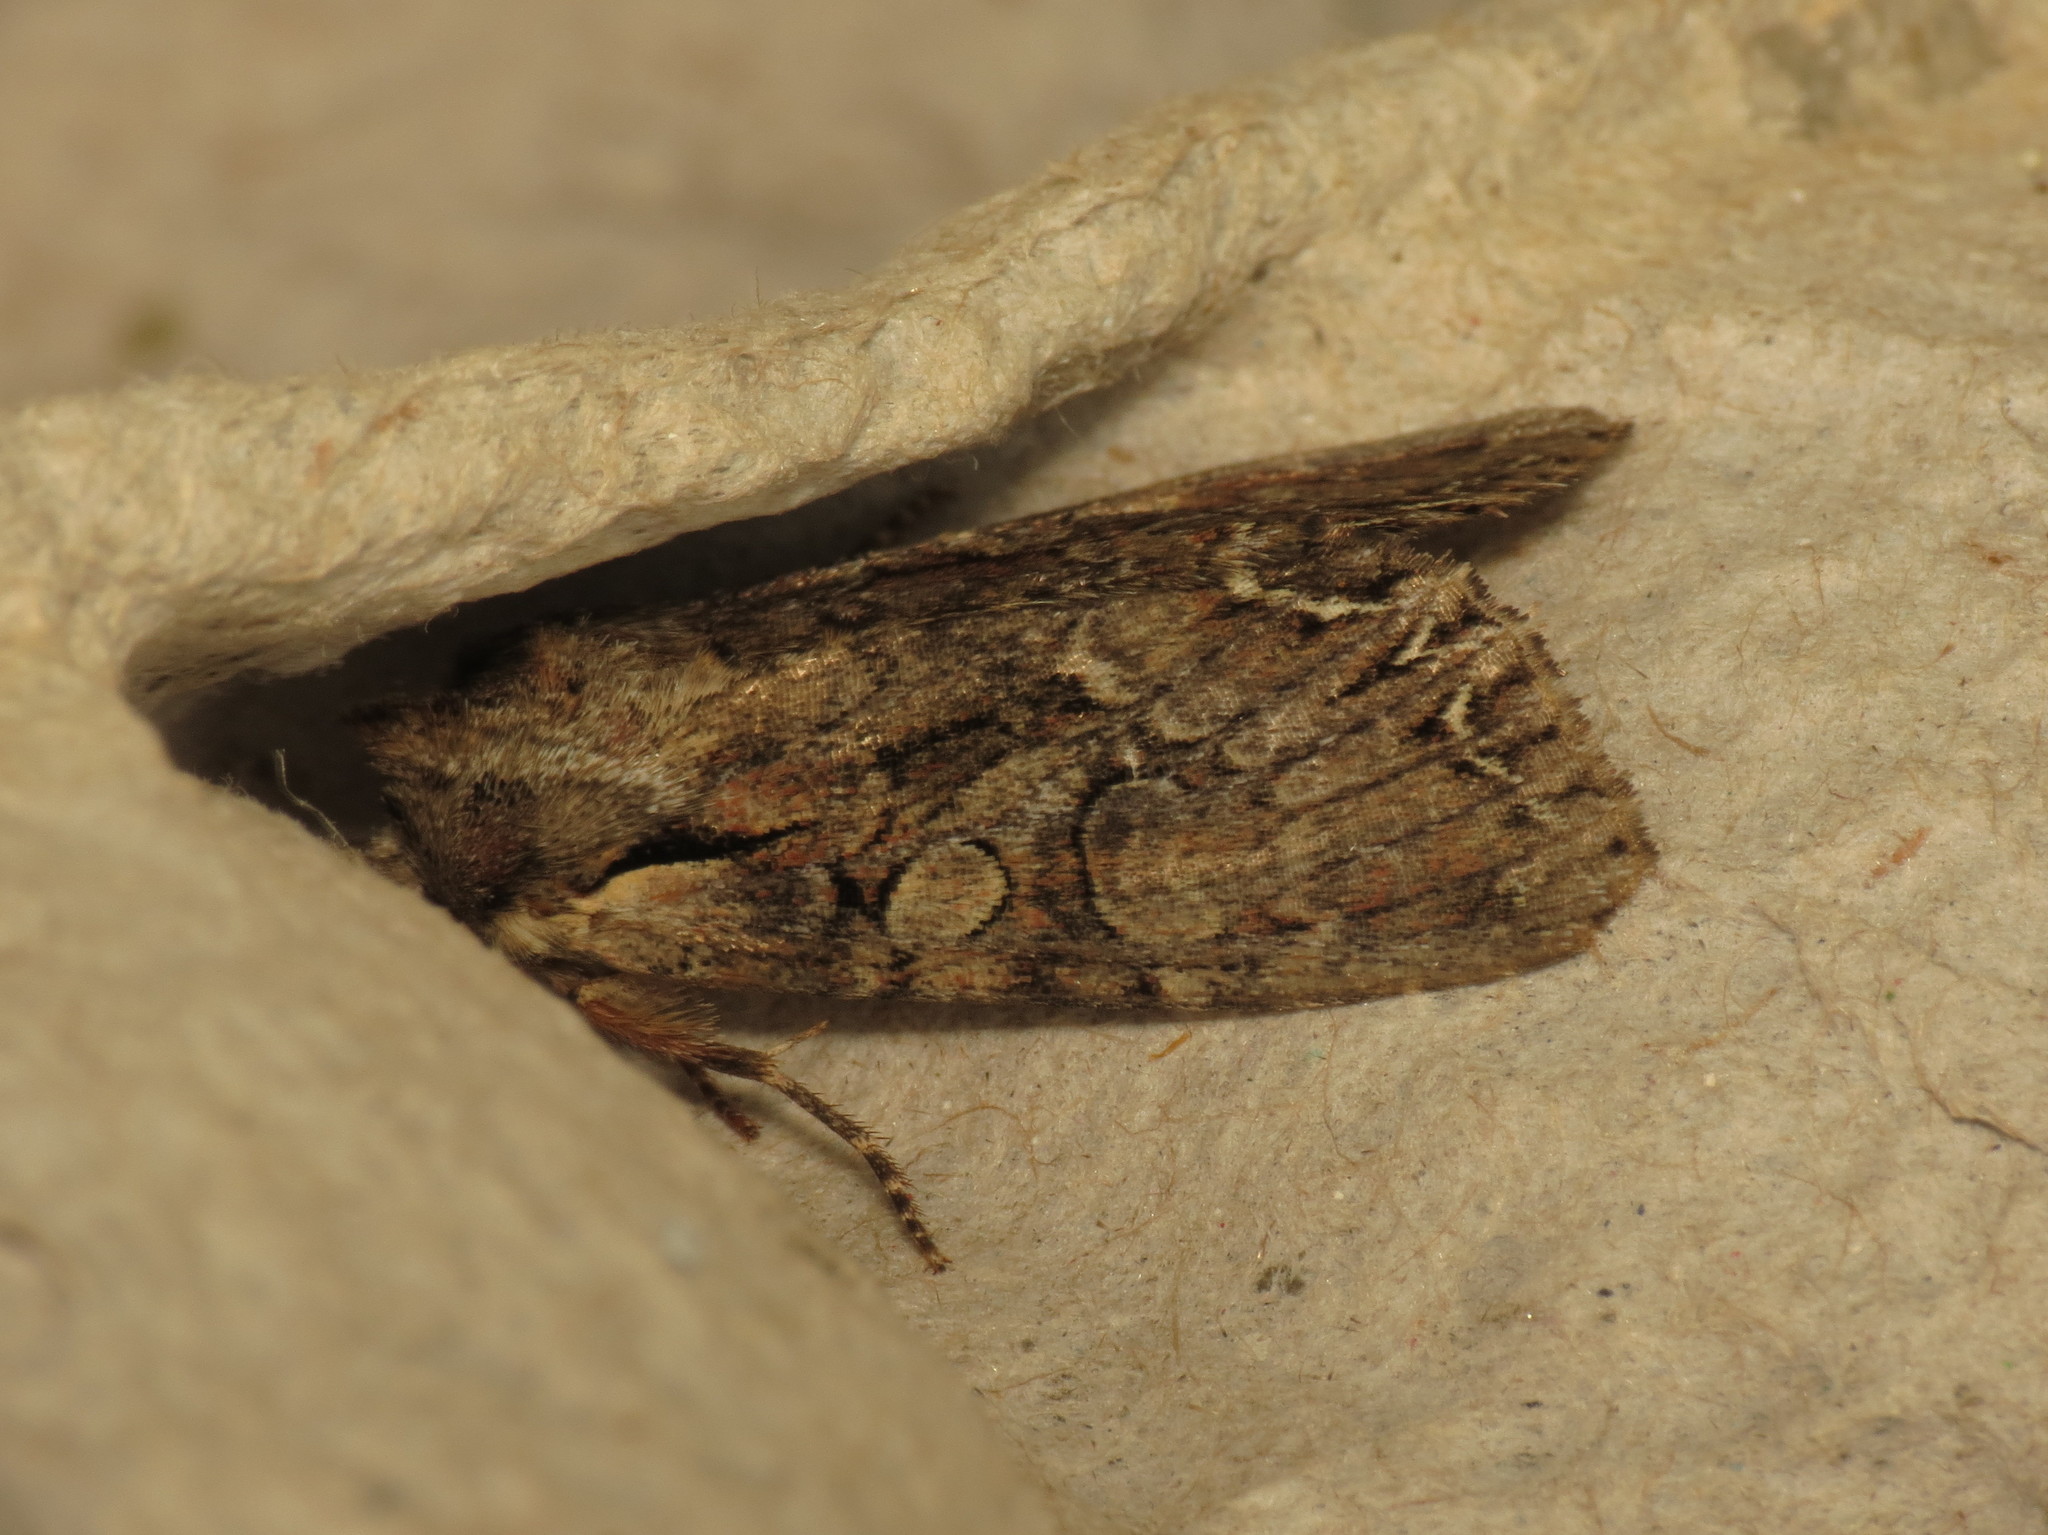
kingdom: Animalia
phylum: Arthropoda
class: Insecta
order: Lepidoptera
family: Noctuidae
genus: Lacanobia
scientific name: Lacanobia thalassina
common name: Pale-shouldered brocade
